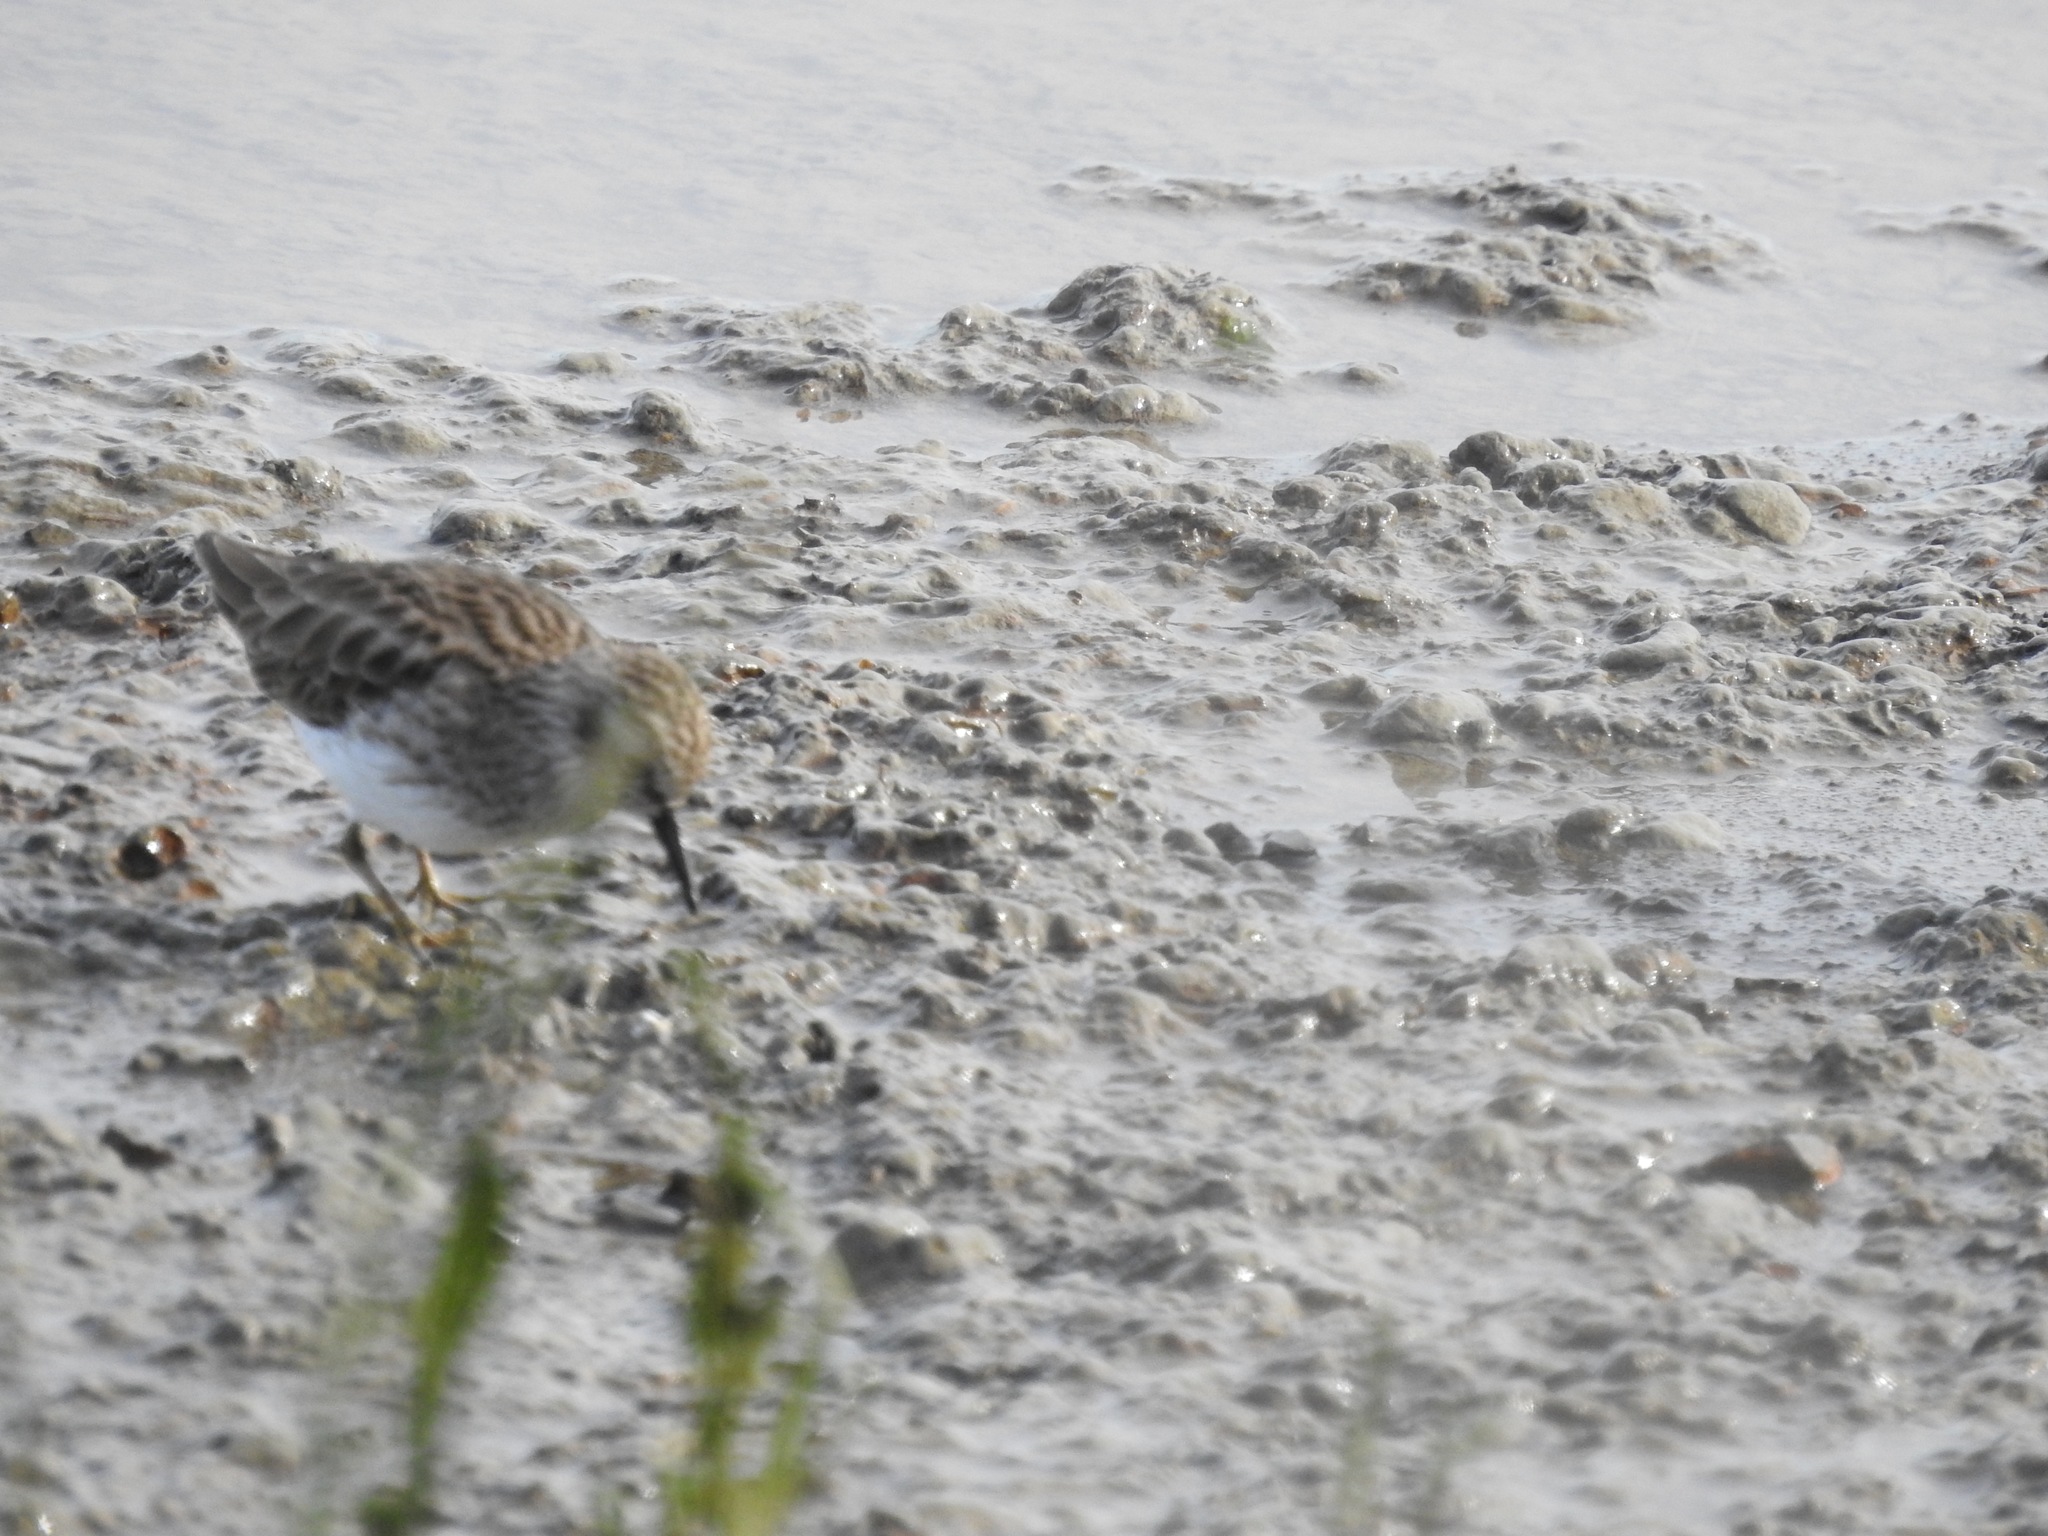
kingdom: Animalia
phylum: Chordata
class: Aves
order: Charadriiformes
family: Scolopacidae
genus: Calidris
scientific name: Calidris minutilla
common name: Least sandpiper
